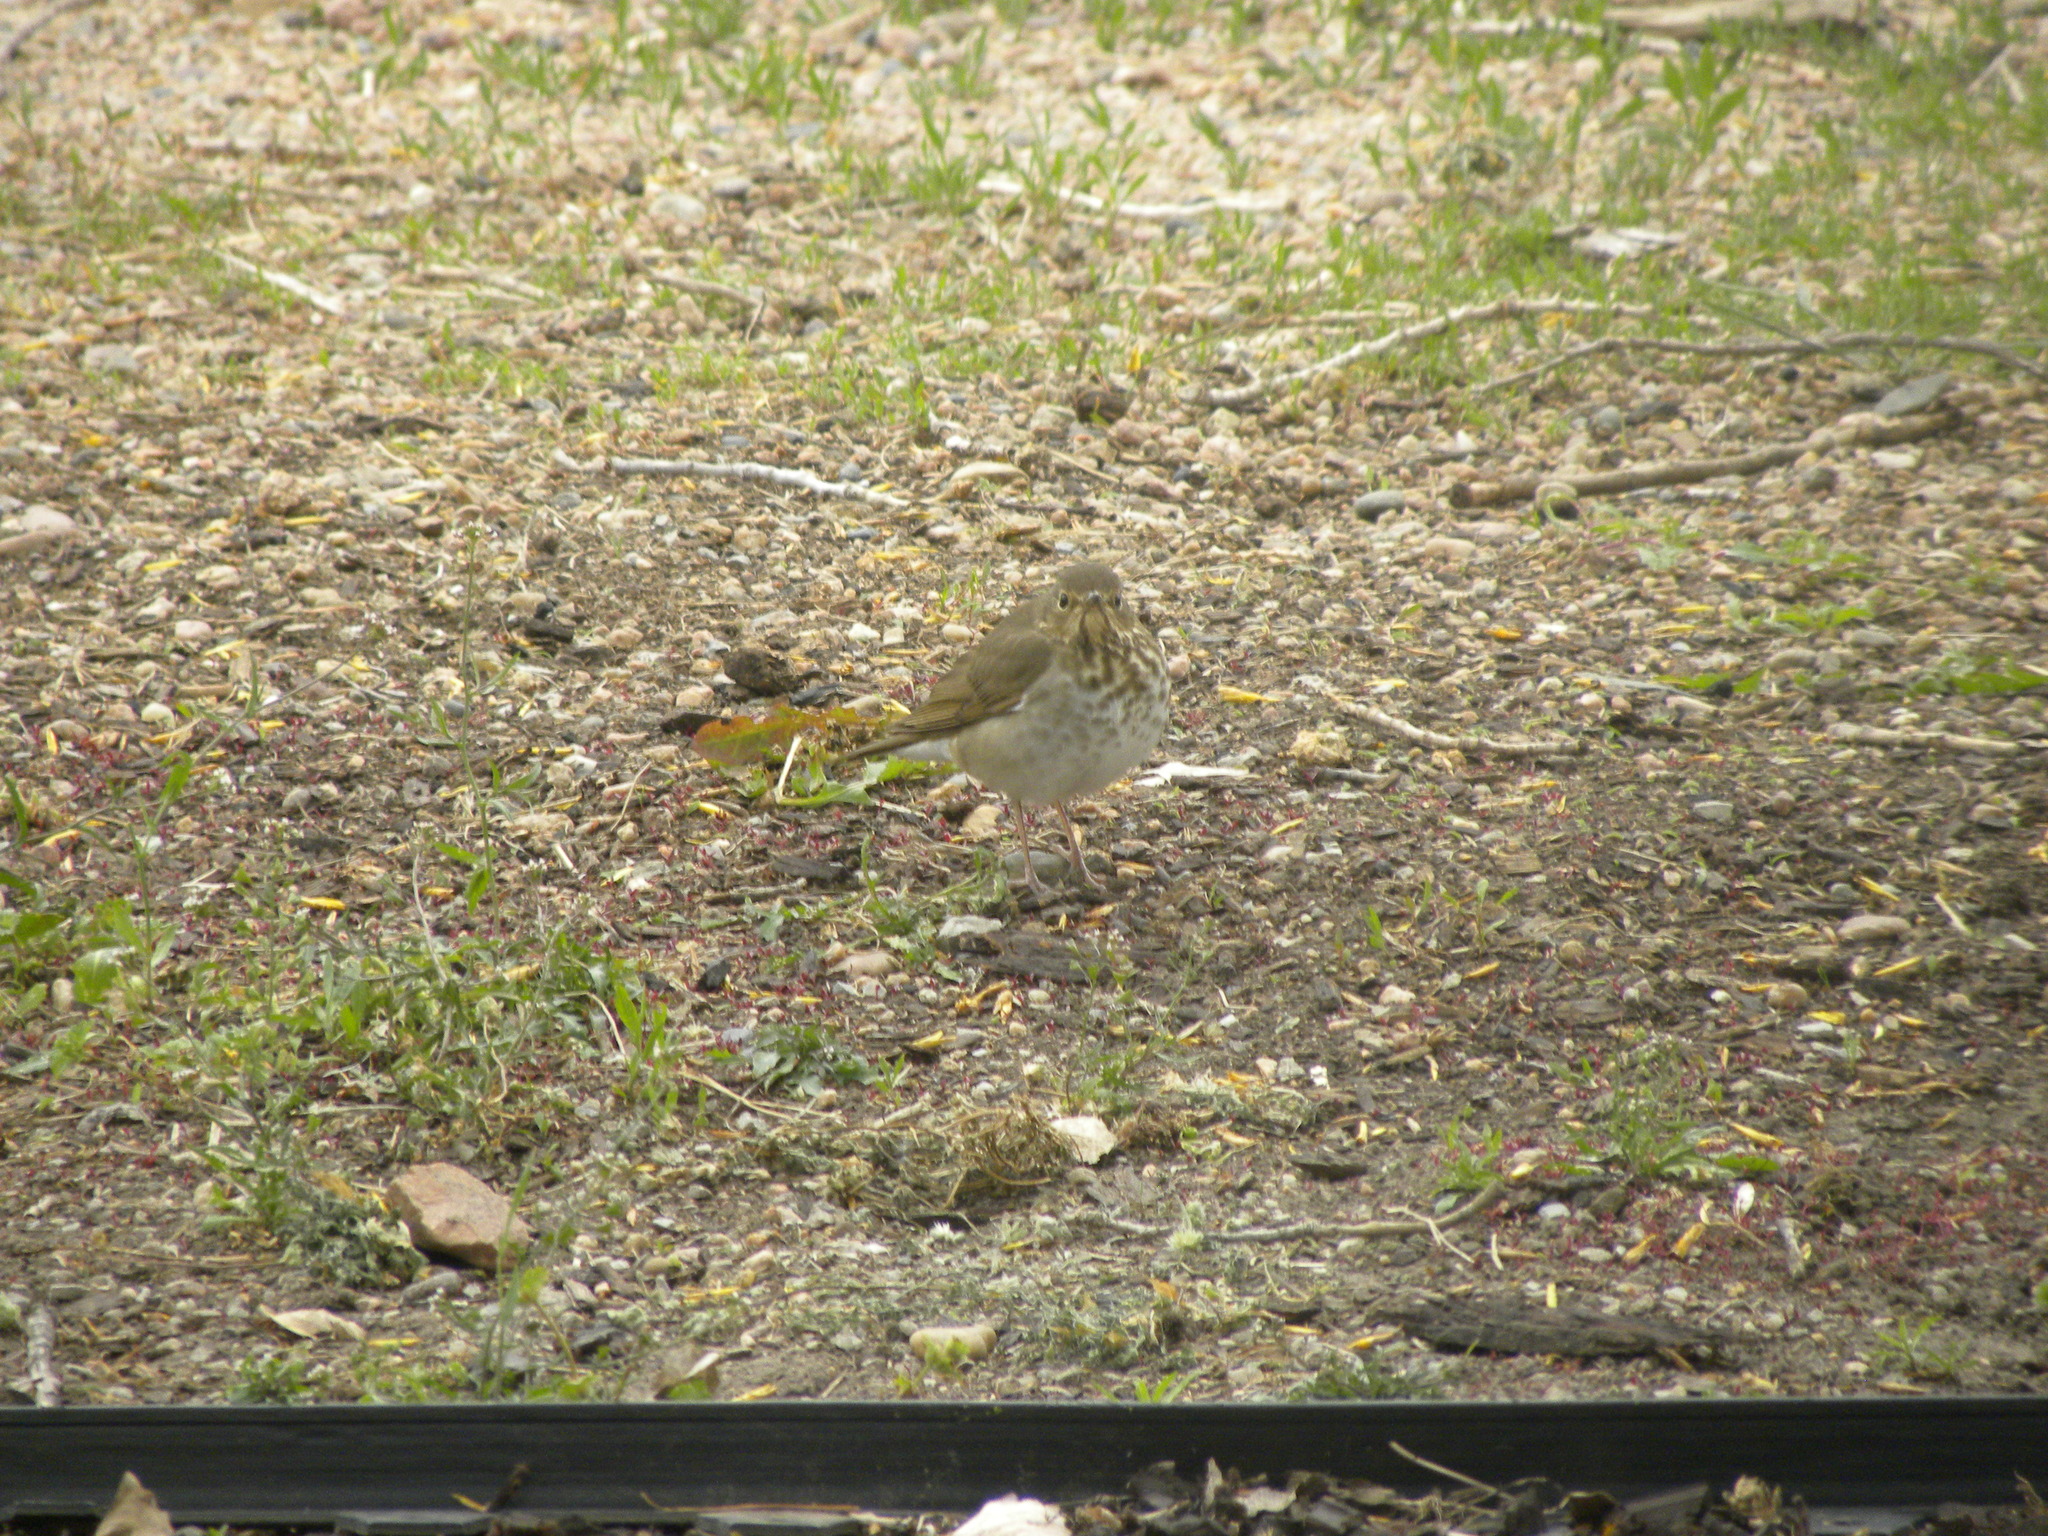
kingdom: Animalia
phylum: Chordata
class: Aves
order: Passeriformes
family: Turdidae
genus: Catharus
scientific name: Catharus ustulatus
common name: Swainson's thrush
